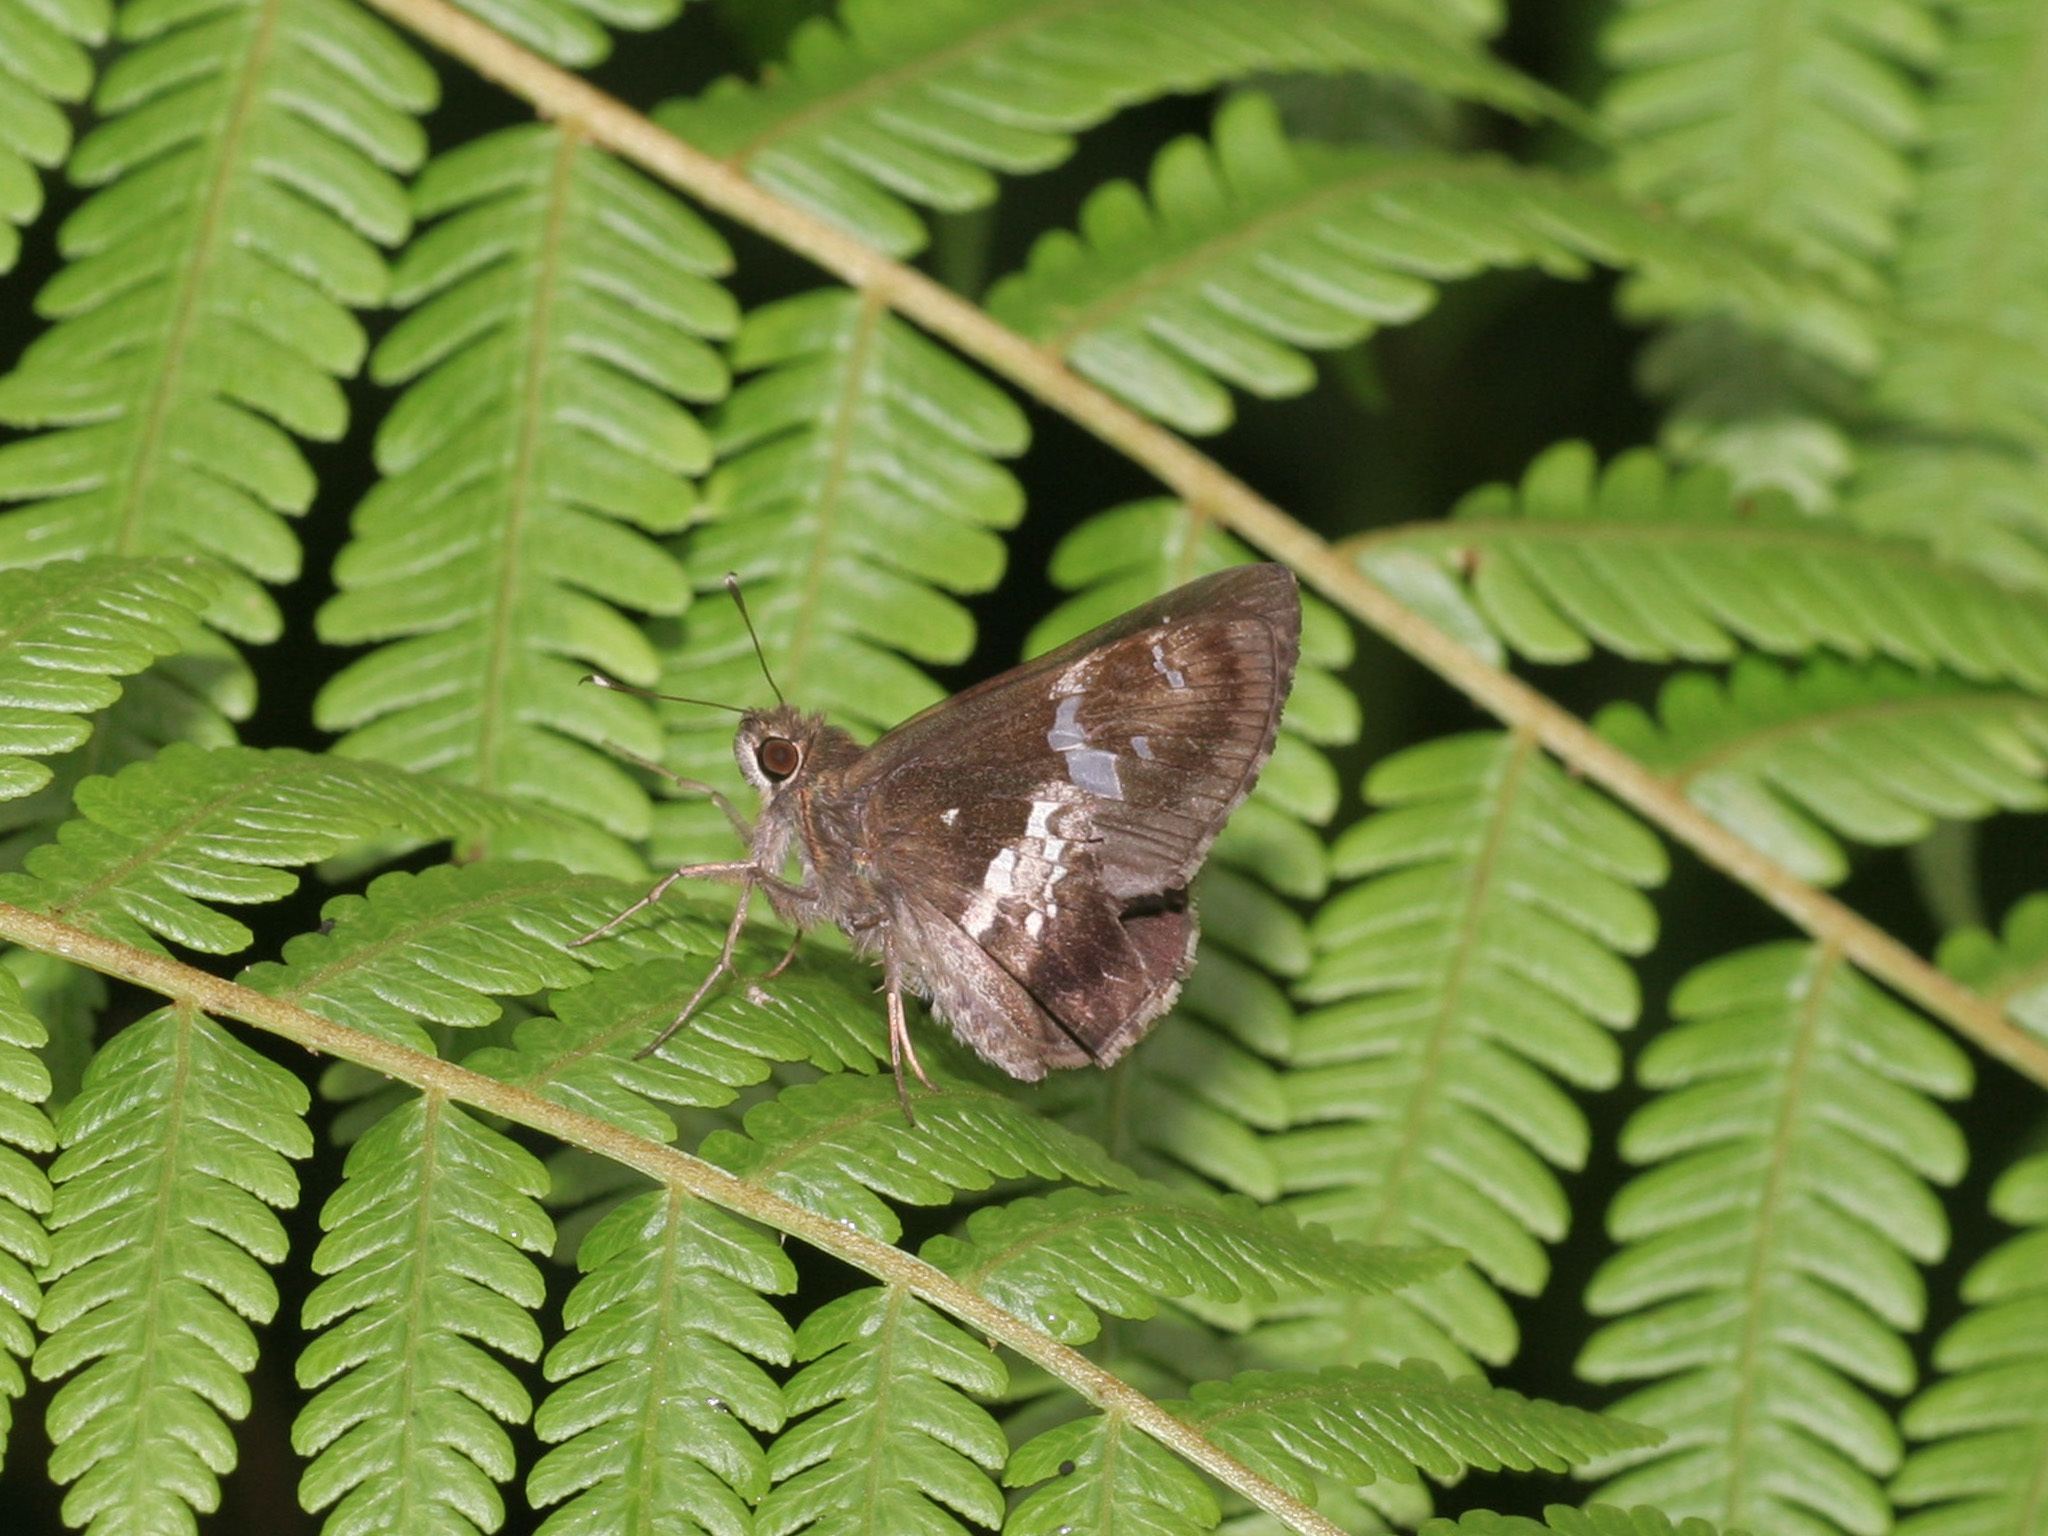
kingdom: Animalia
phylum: Arthropoda
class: Insecta
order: Lepidoptera
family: Hesperiidae
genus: Hyarotis
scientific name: Hyarotis adrastus
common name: Tree flitter
